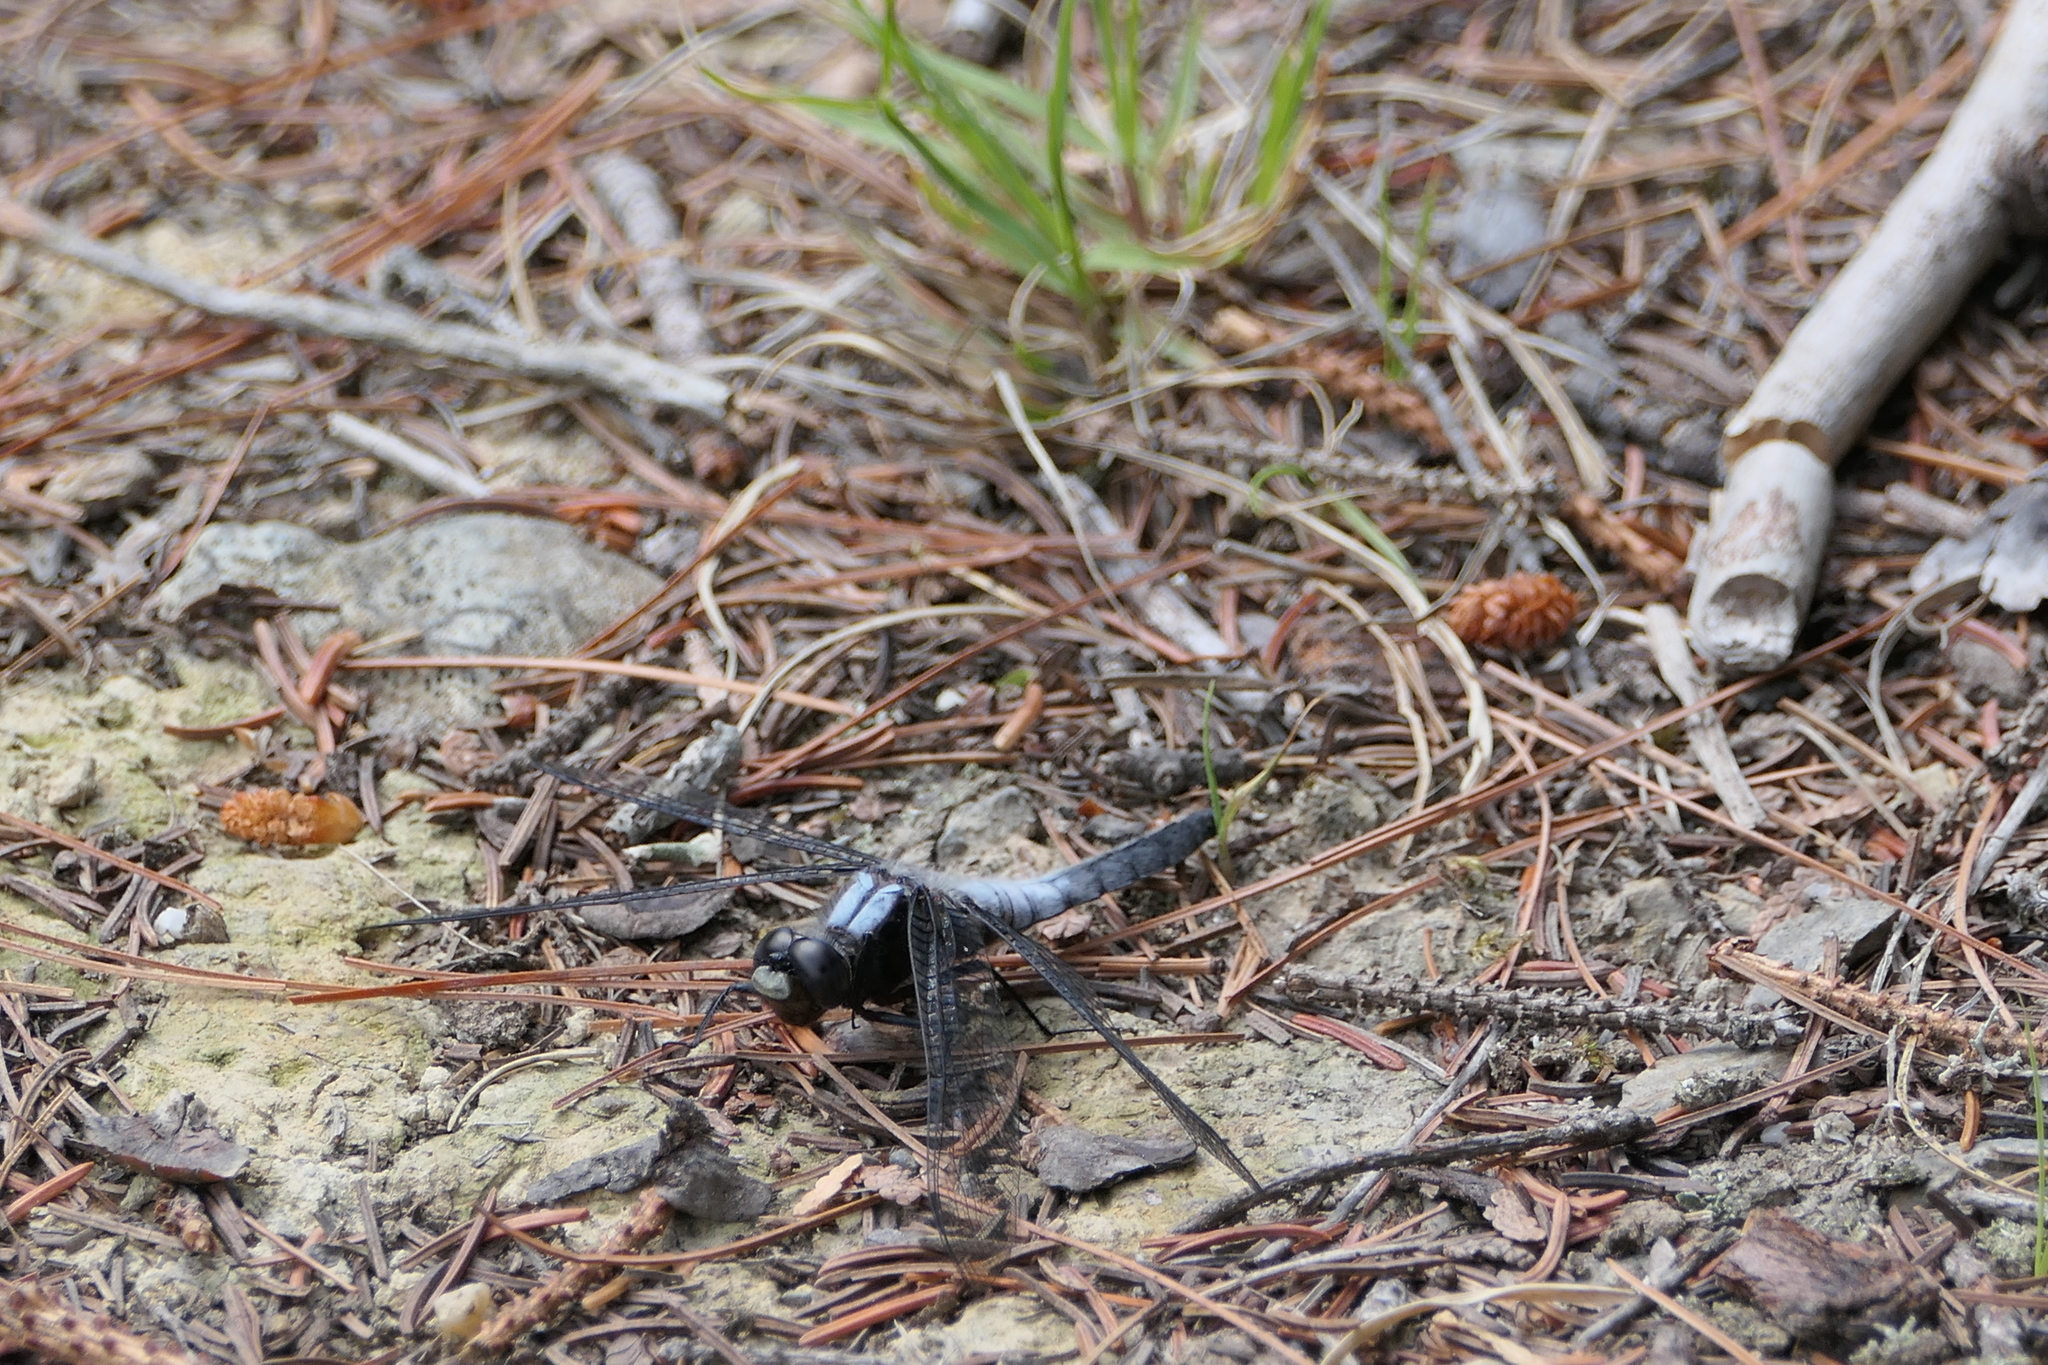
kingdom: Animalia
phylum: Arthropoda
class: Insecta
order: Odonata
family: Libellulidae
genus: Ladona
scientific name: Ladona julia
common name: Chalk-fronted corporal
